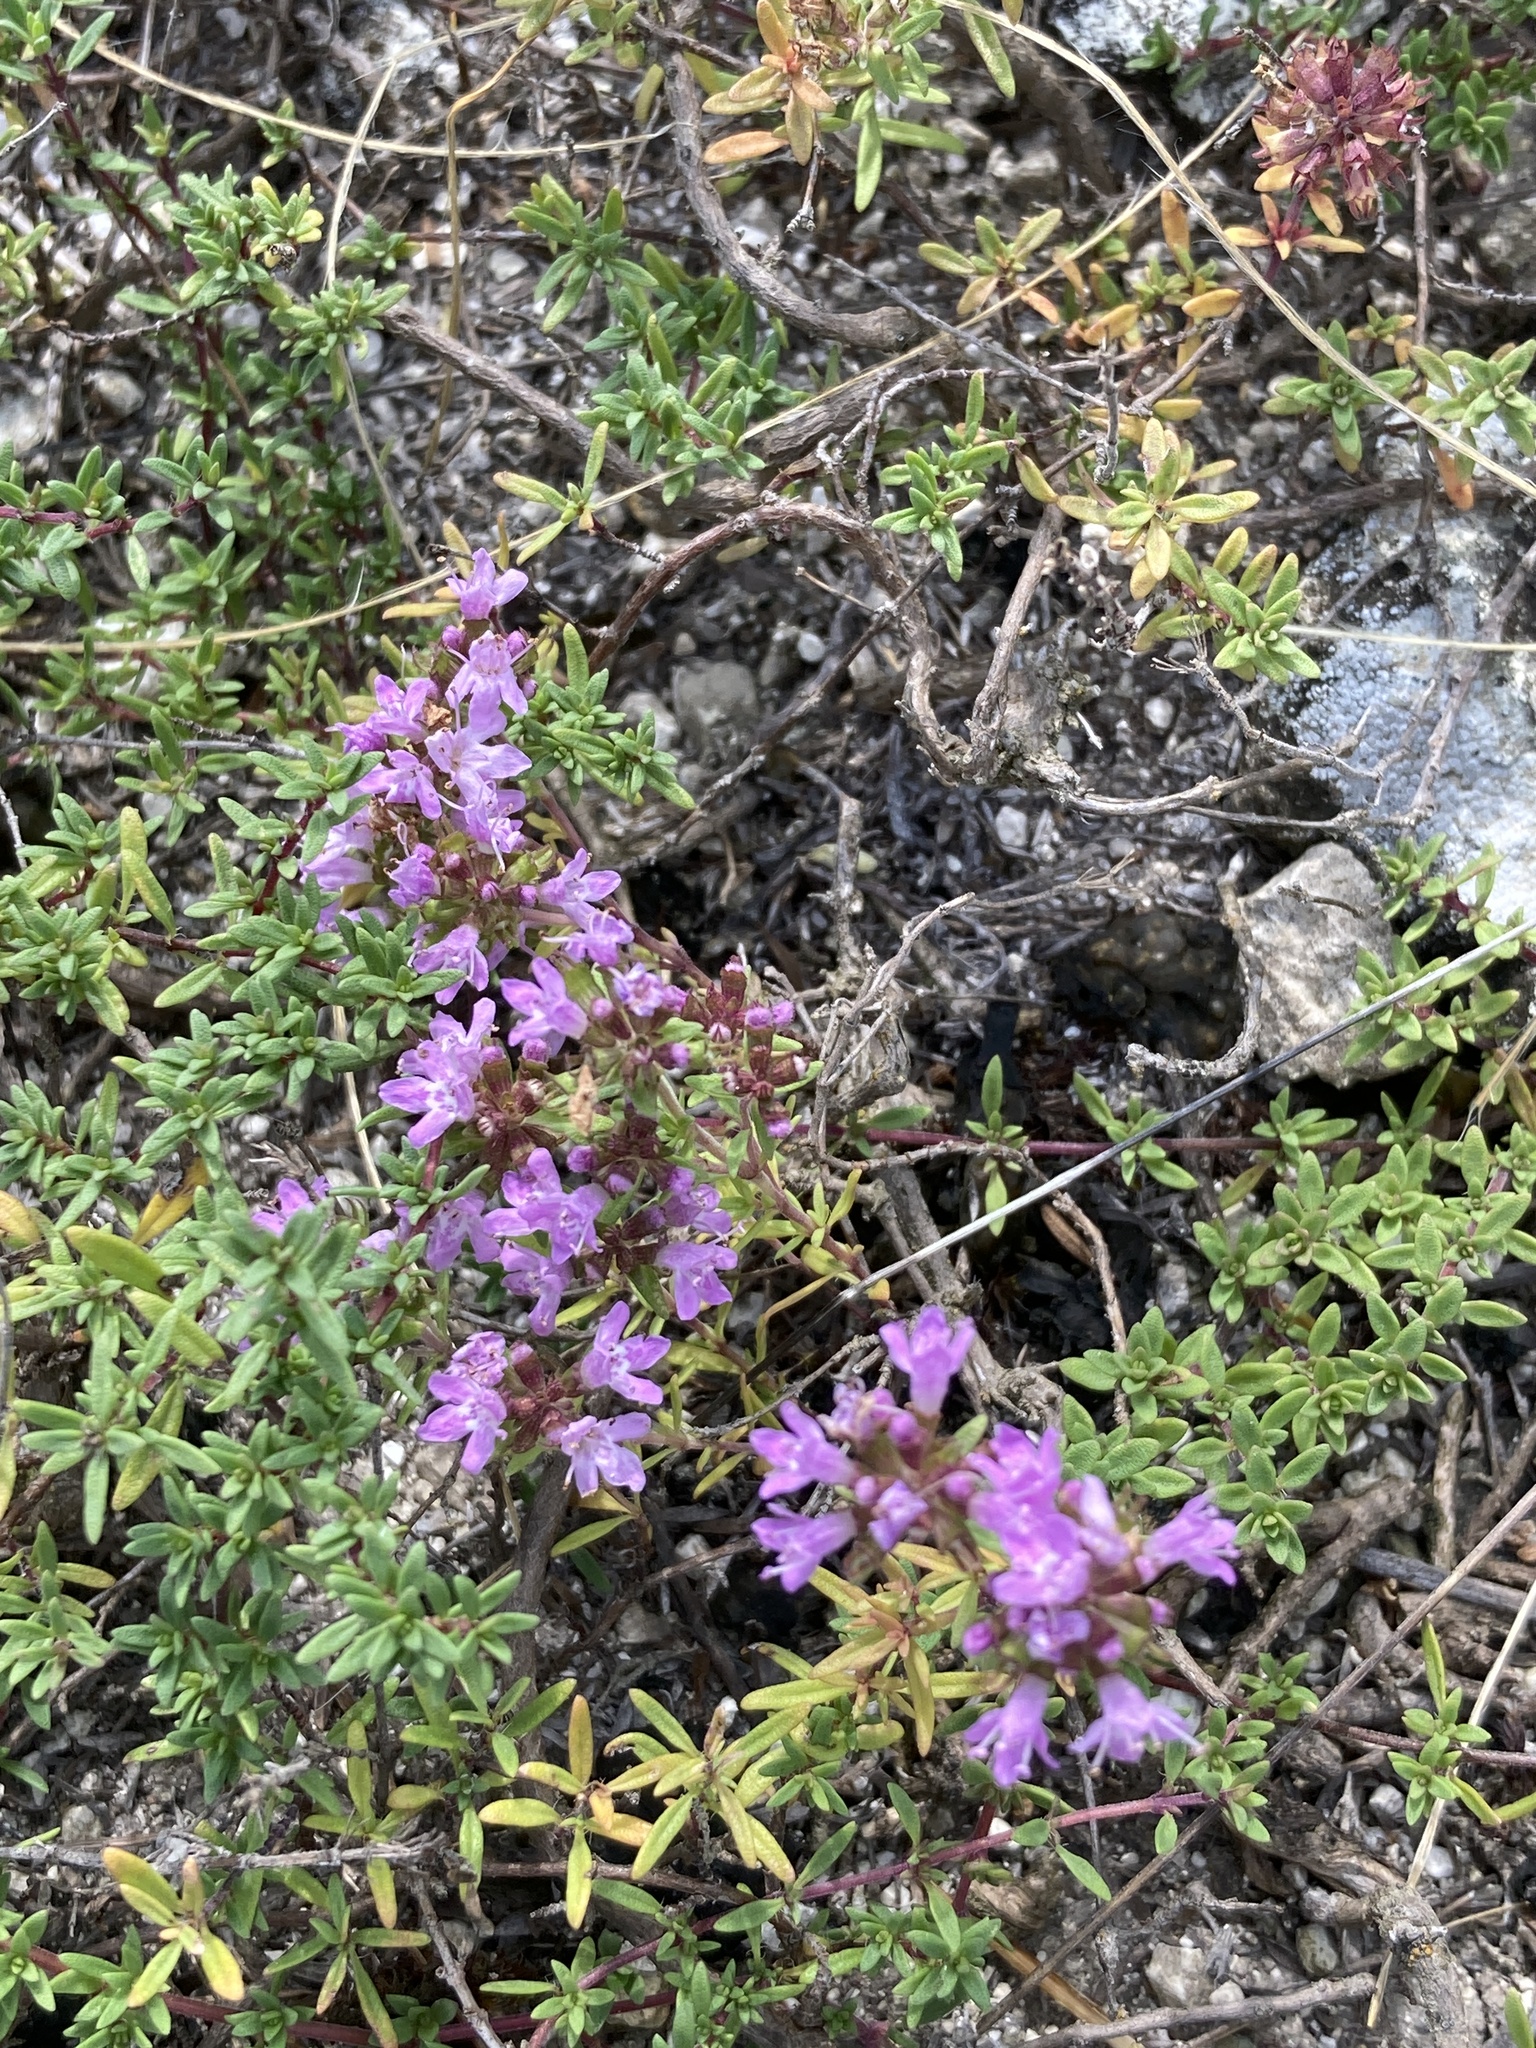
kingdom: Plantae
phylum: Tracheophyta
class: Magnoliopsida
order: Lamiales
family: Lamiaceae
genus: Thymus
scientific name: Thymus calcareus
